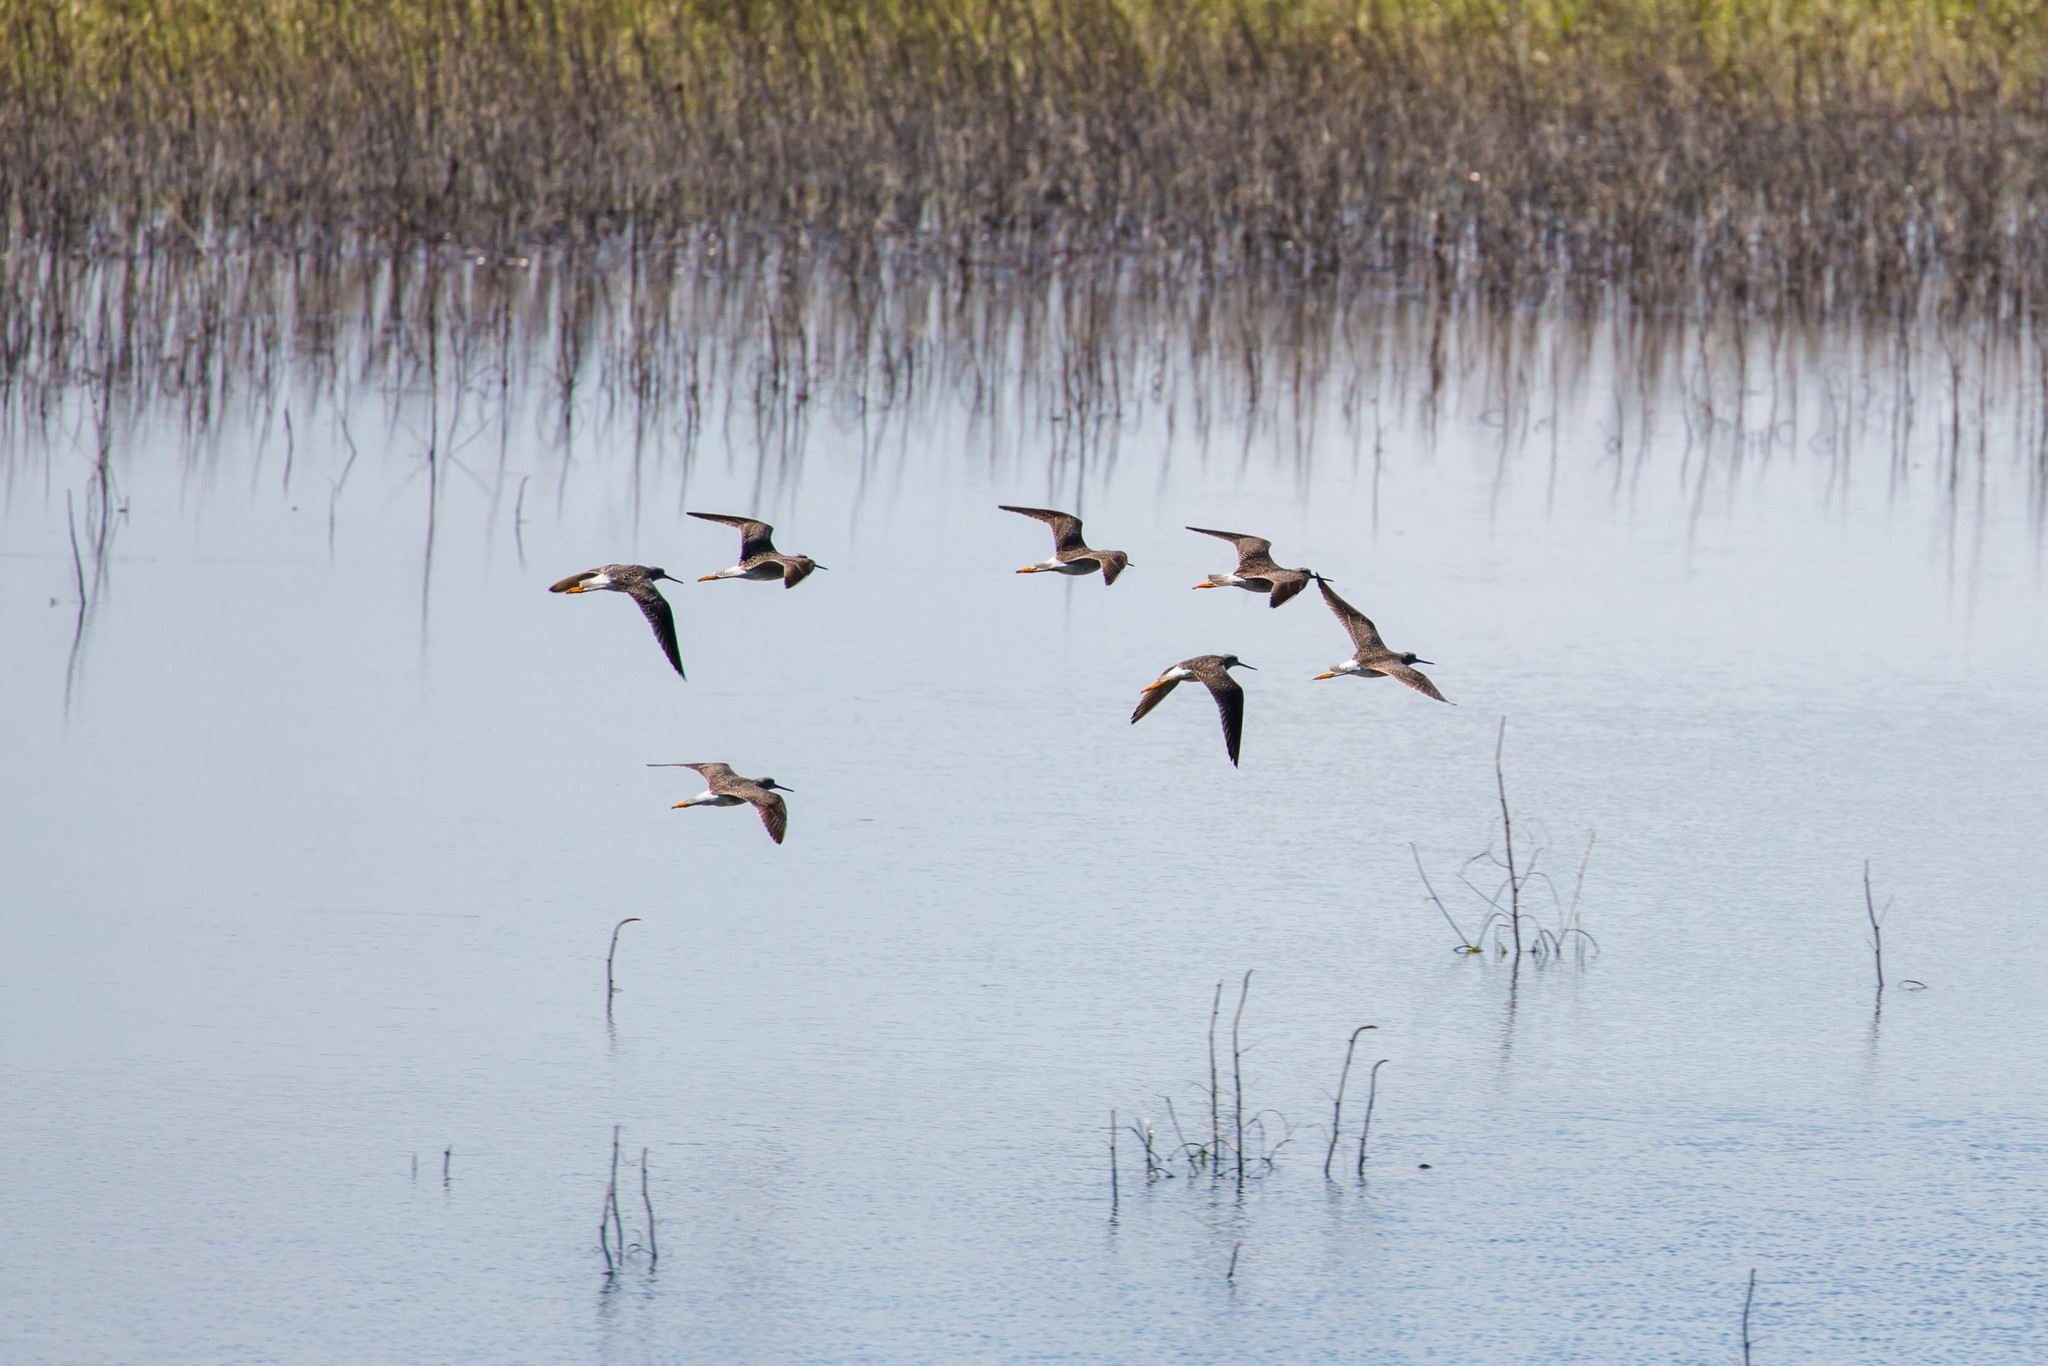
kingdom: Animalia
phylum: Chordata
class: Aves
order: Charadriiformes
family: Scolopacidae
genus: Tringa
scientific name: Tringa melanoleuca
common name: Greater yellowlegs
